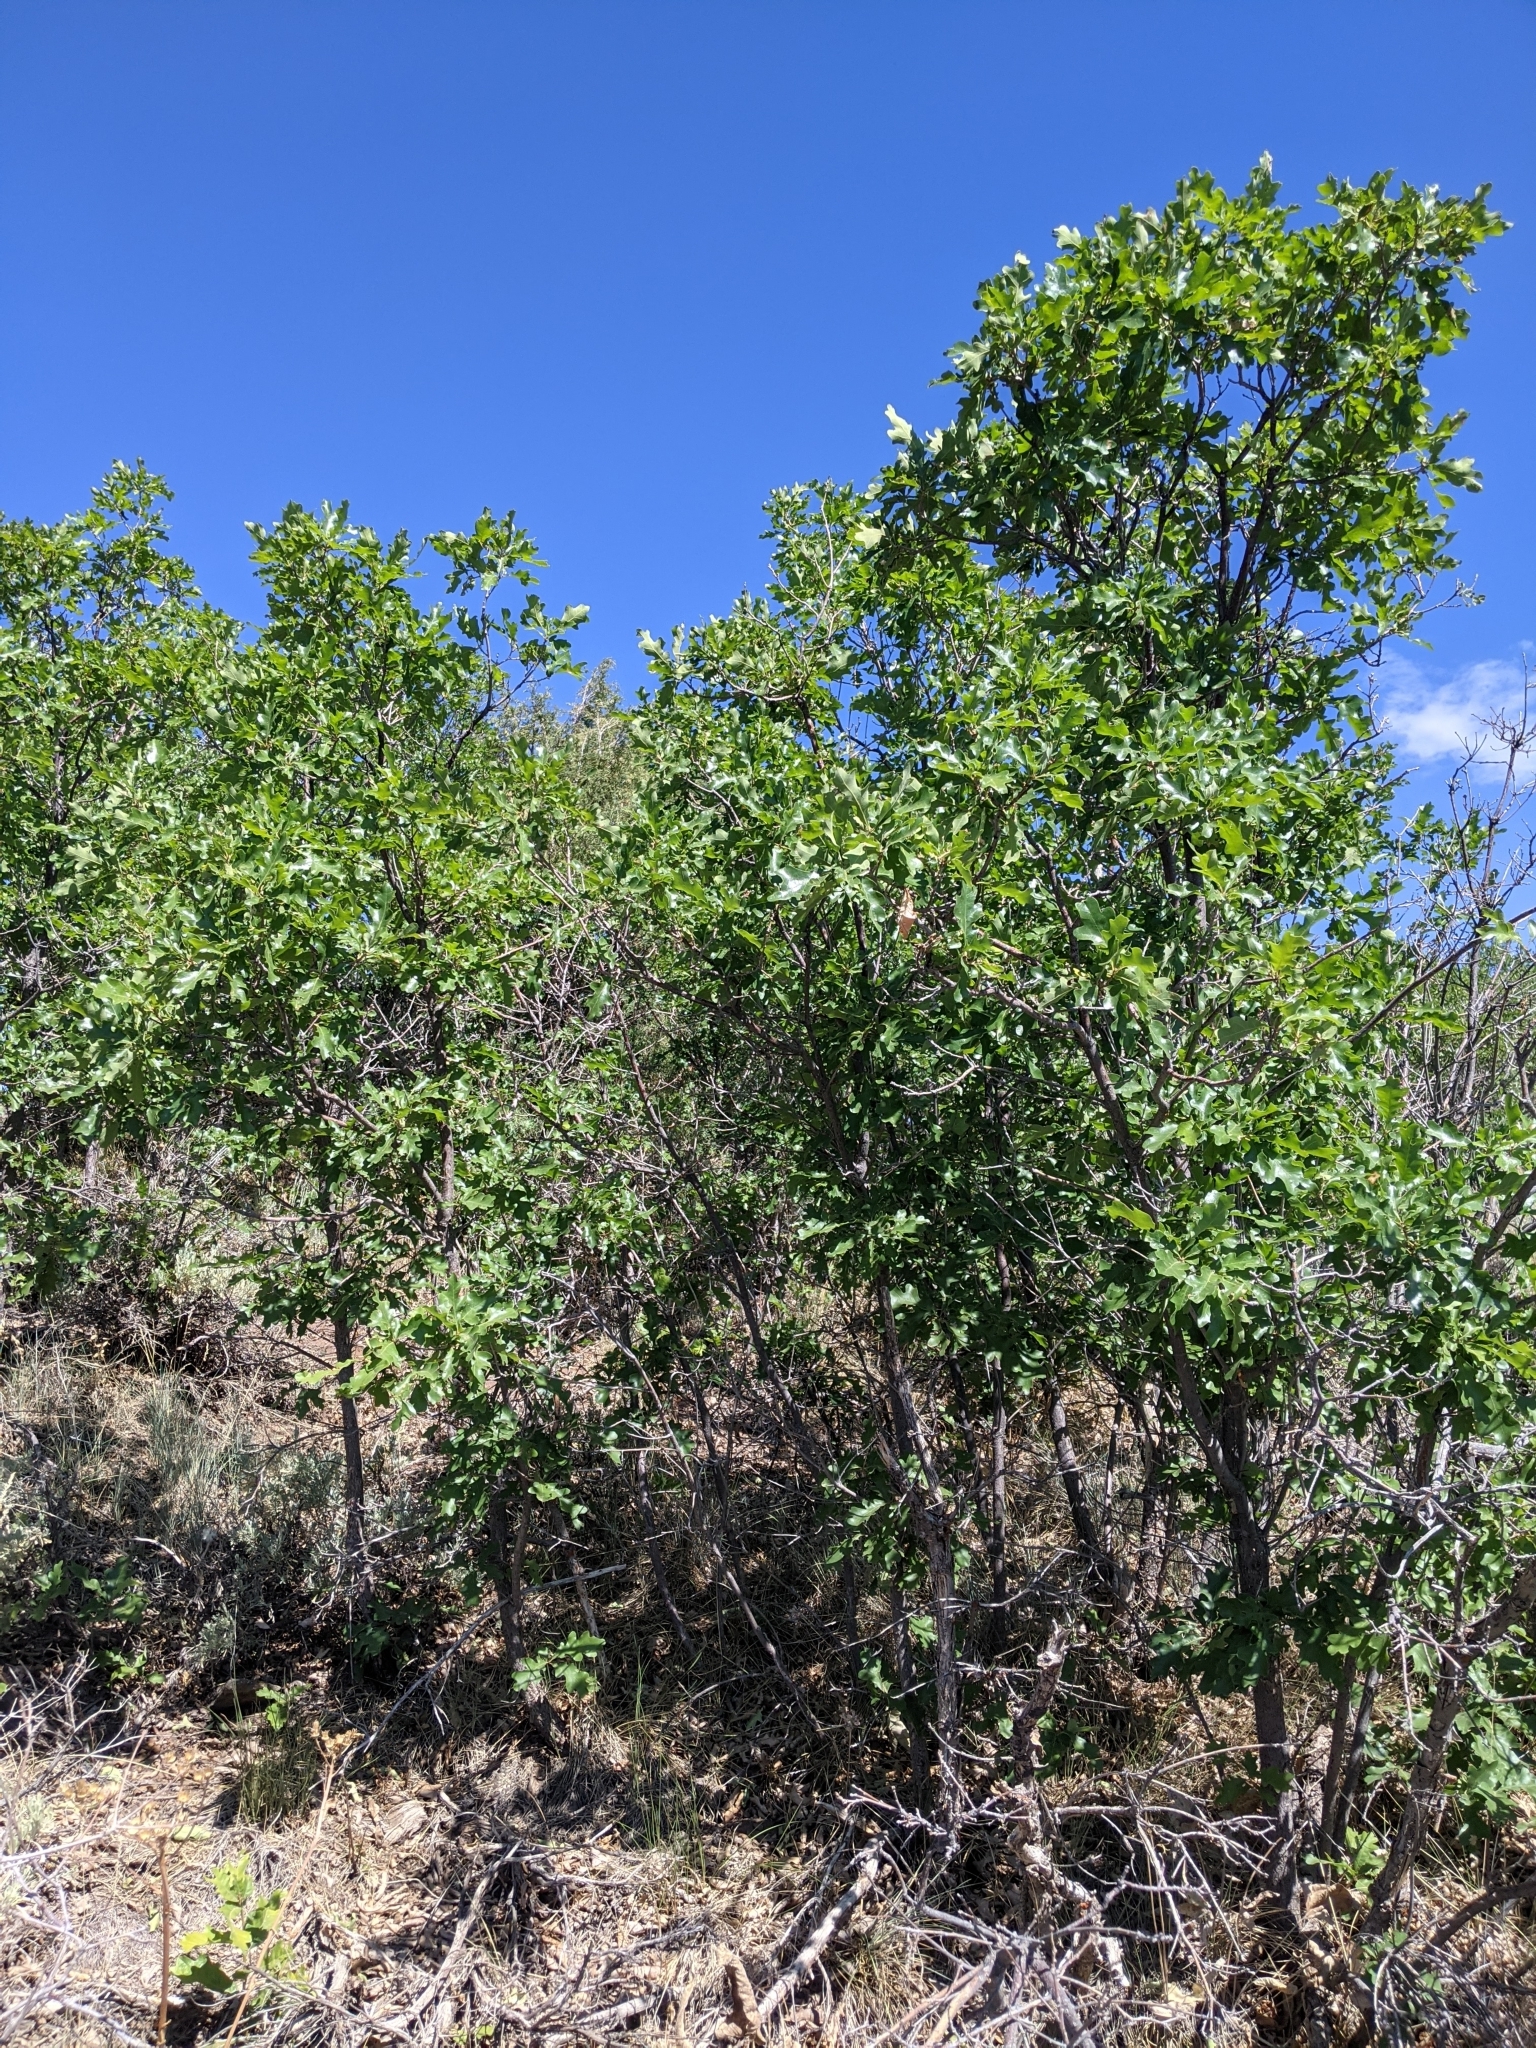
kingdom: Plantae
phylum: Tracheophyta
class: Magnoliopsida
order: Fagales
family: Fagaceae
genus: Quercus
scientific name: Quercus gambelii
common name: Gambel oak
